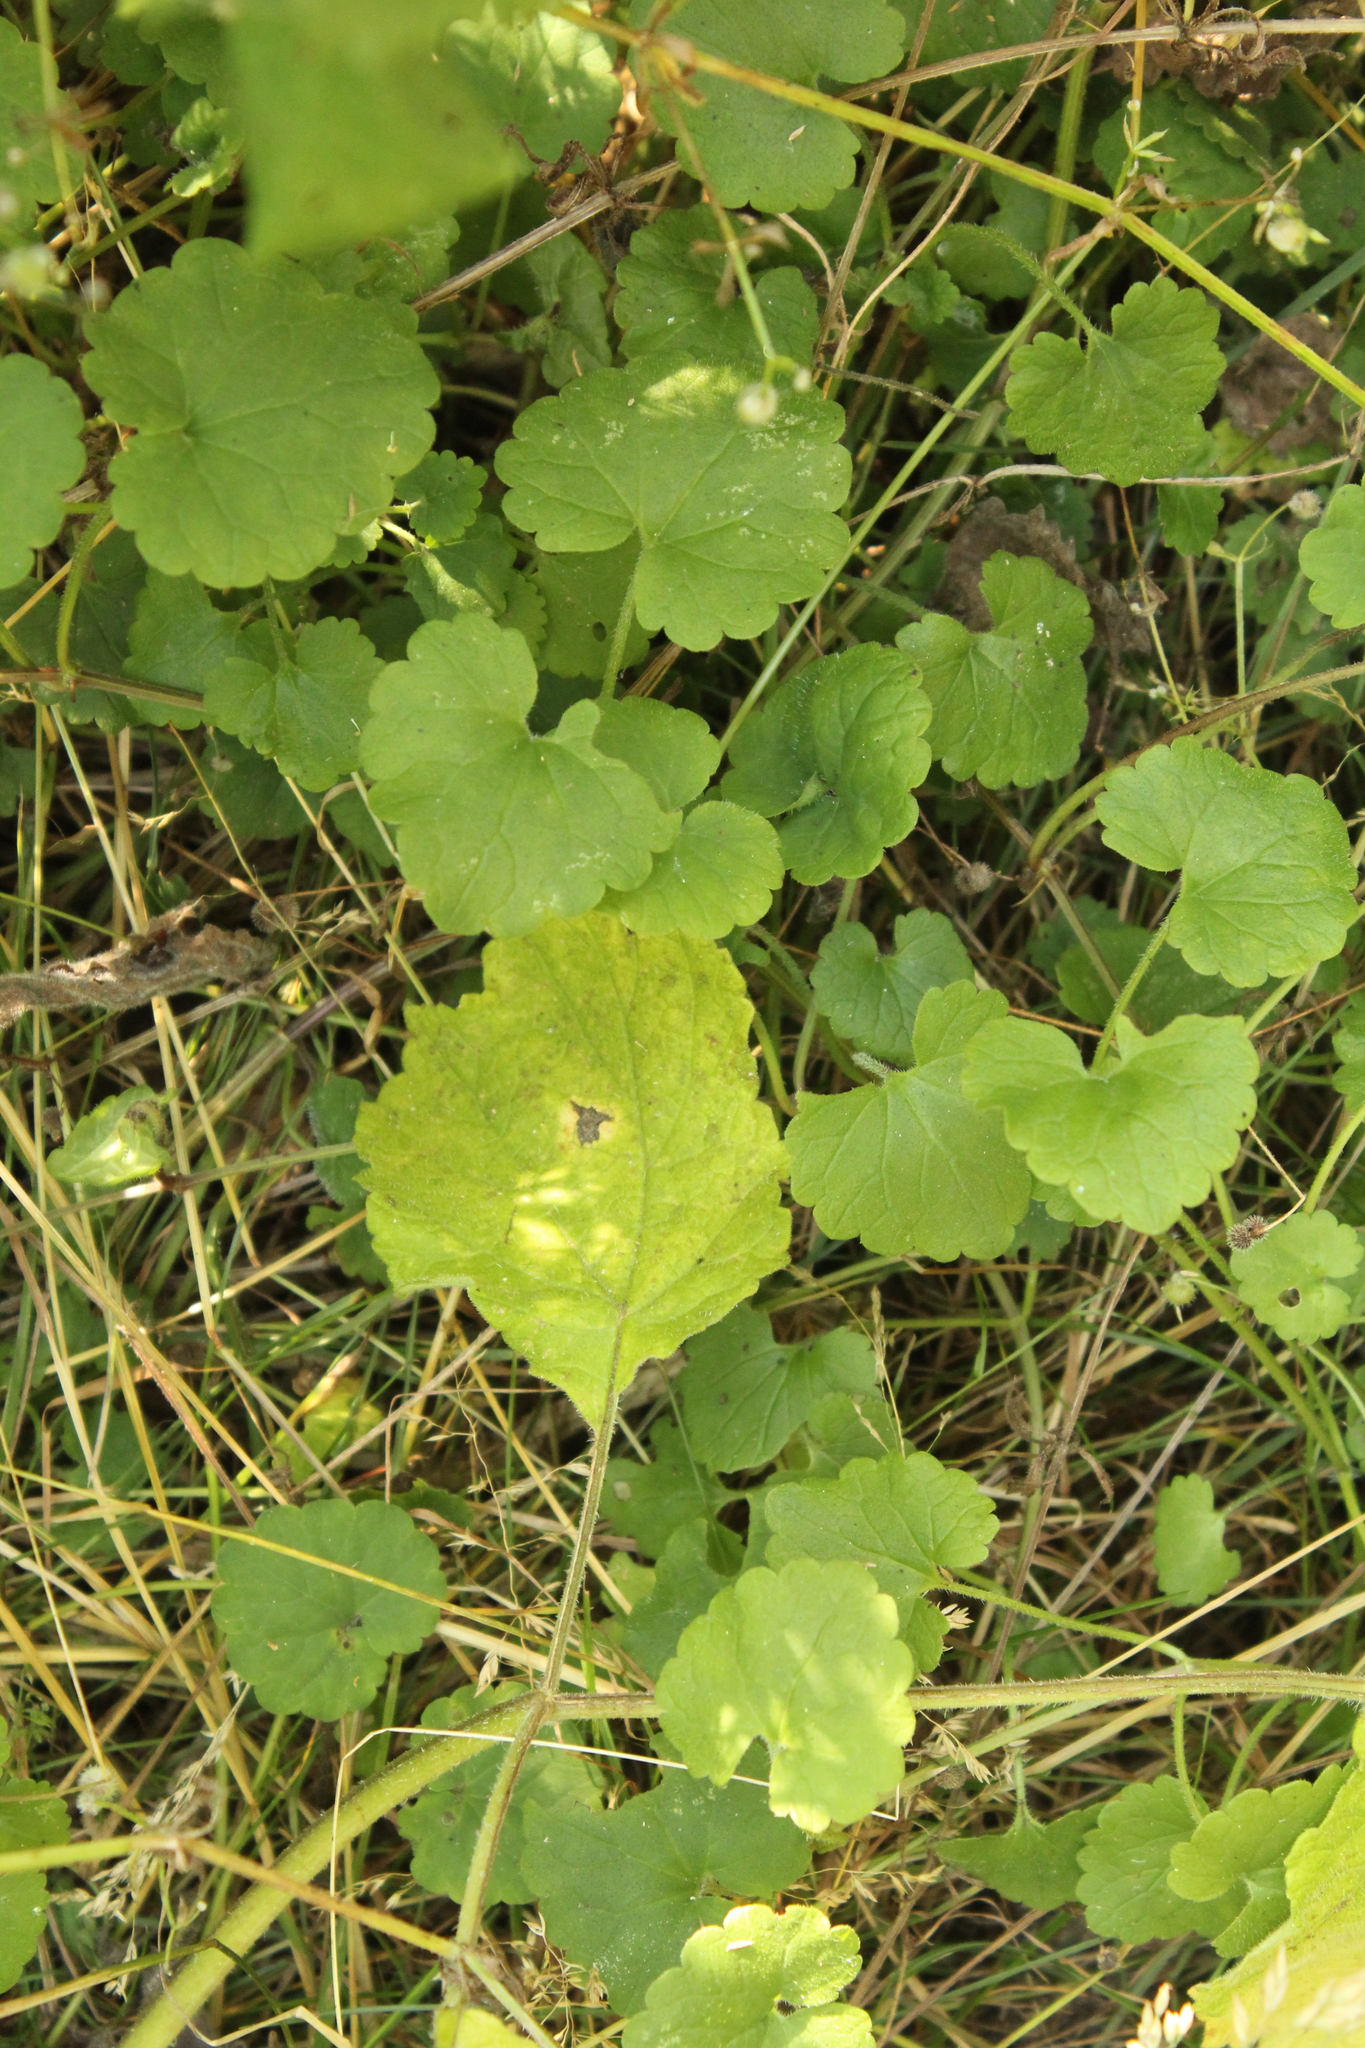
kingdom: Plantae
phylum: Tracheophyta
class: Magnoliopsida
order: Lamiales
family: Lamiaceae
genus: Glechoma
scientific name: Glechoma hederacea
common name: Ground ivy
